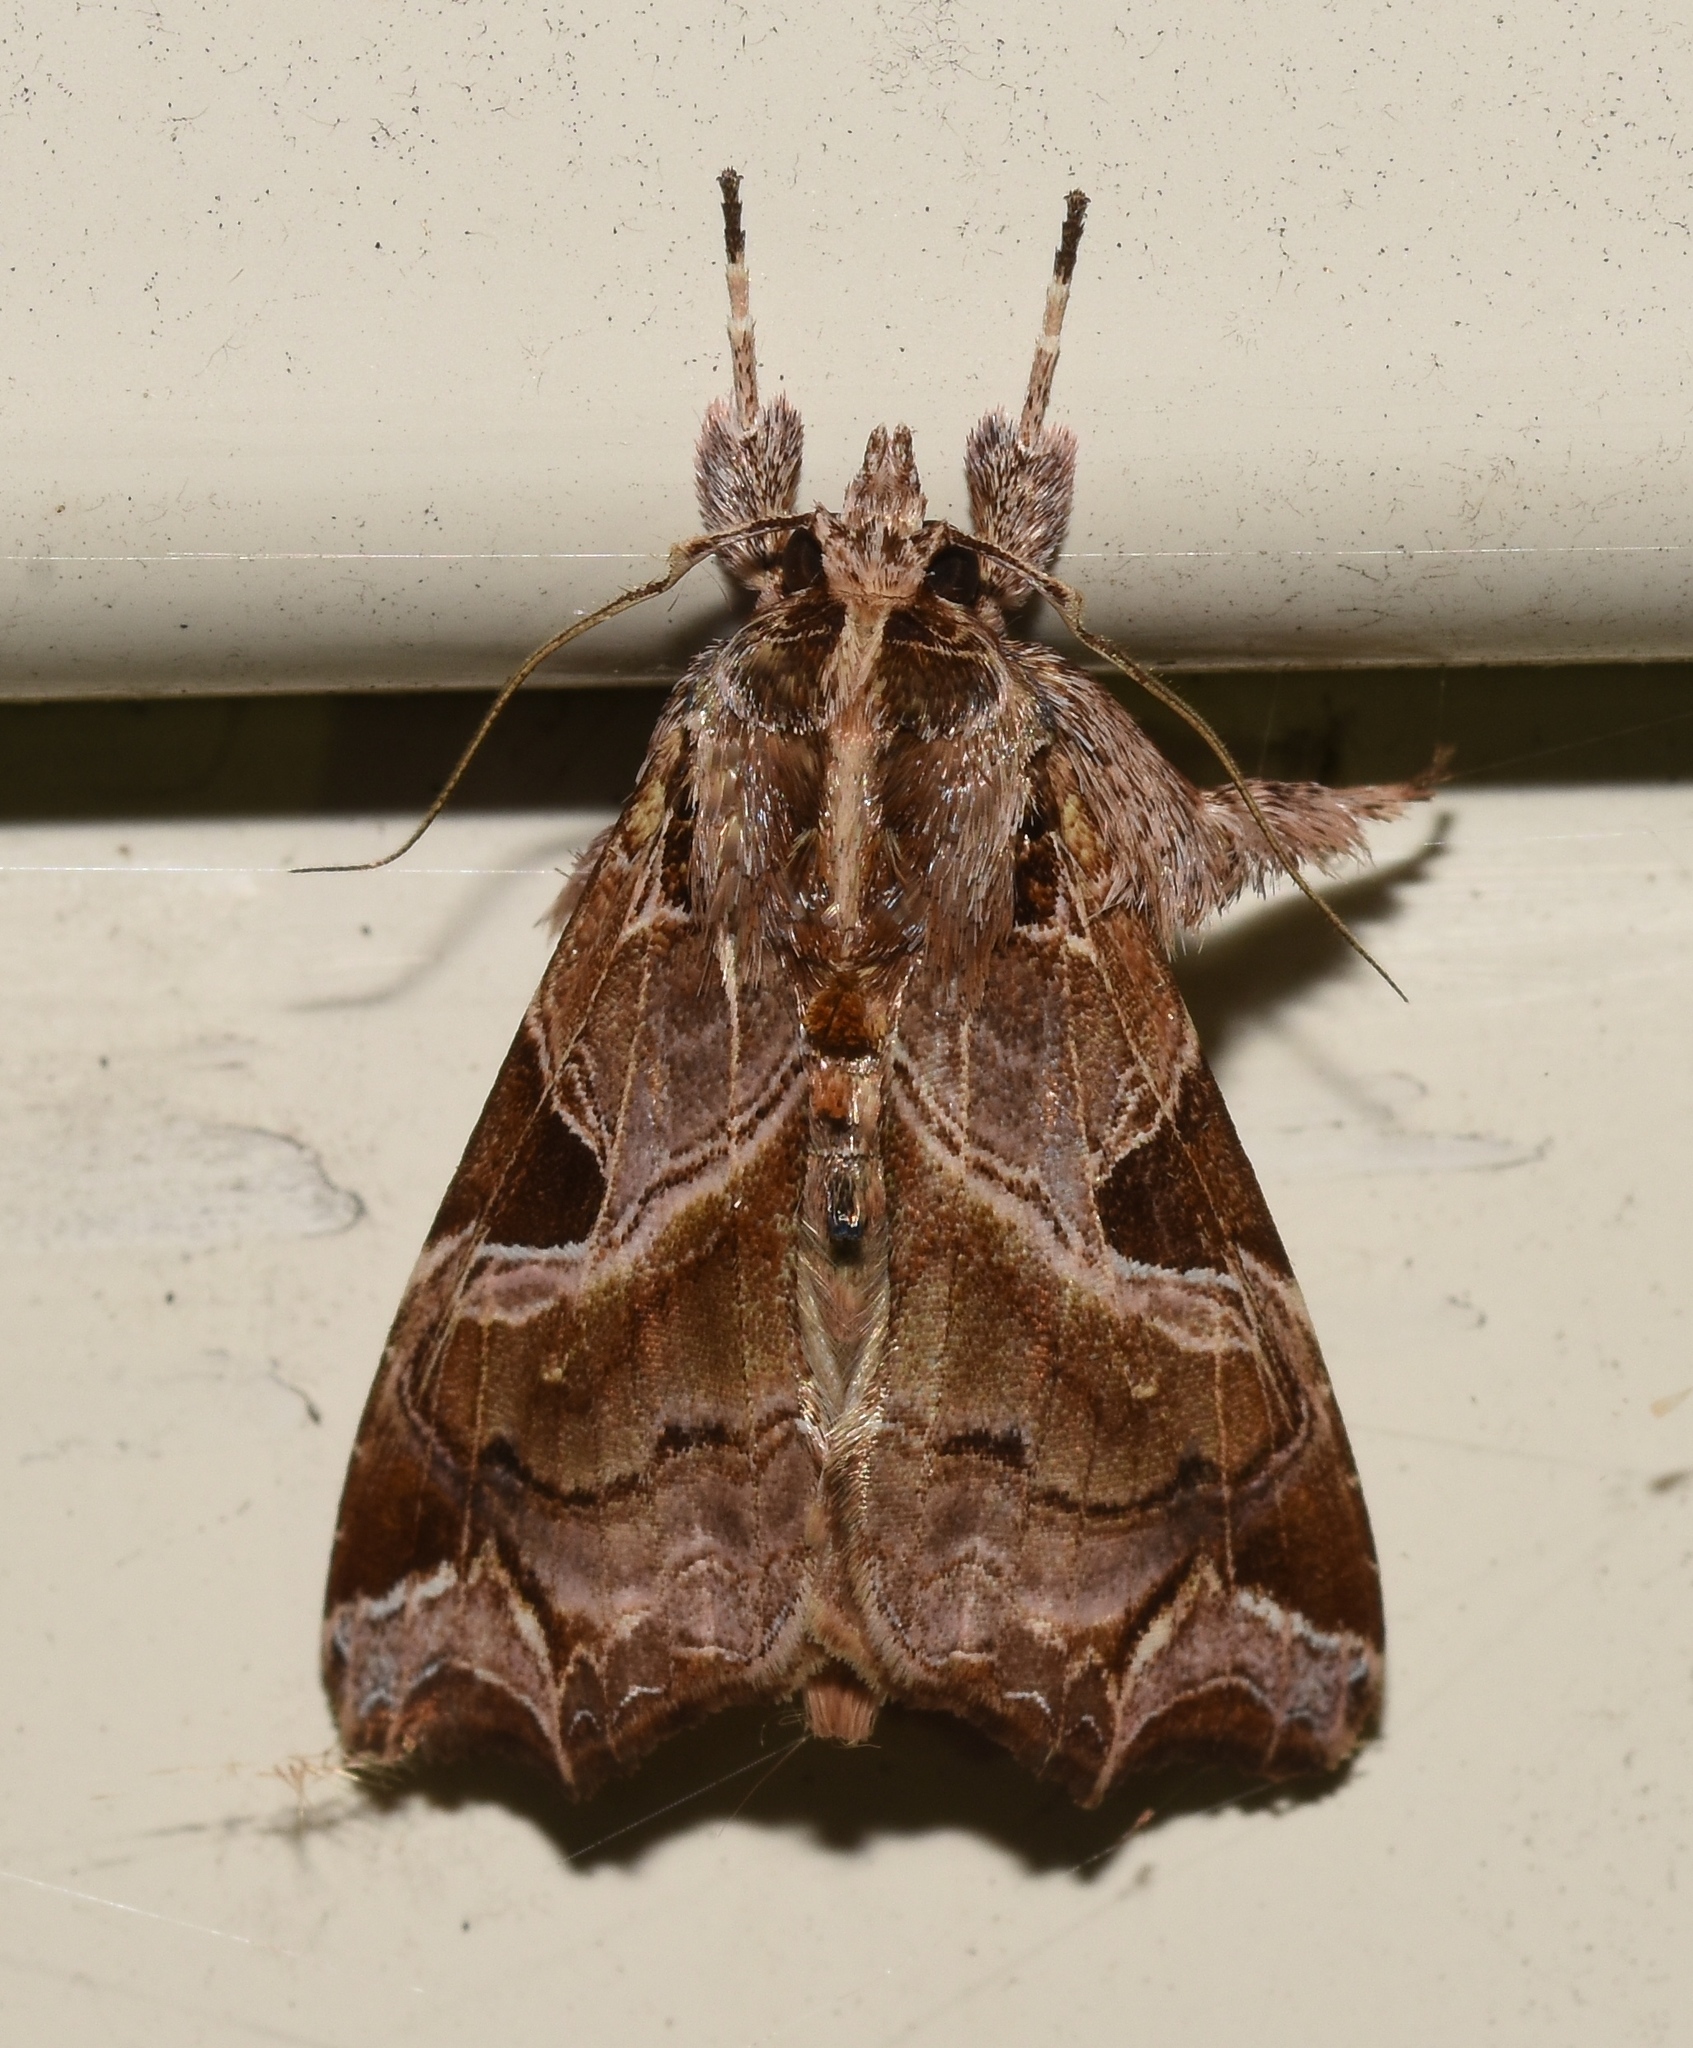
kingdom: Animalia
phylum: Arthropoda
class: Insecta
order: Lepidoptera
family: Noctuidae
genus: Callopistria
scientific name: Callopistria floridensis
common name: Florida fern moth
